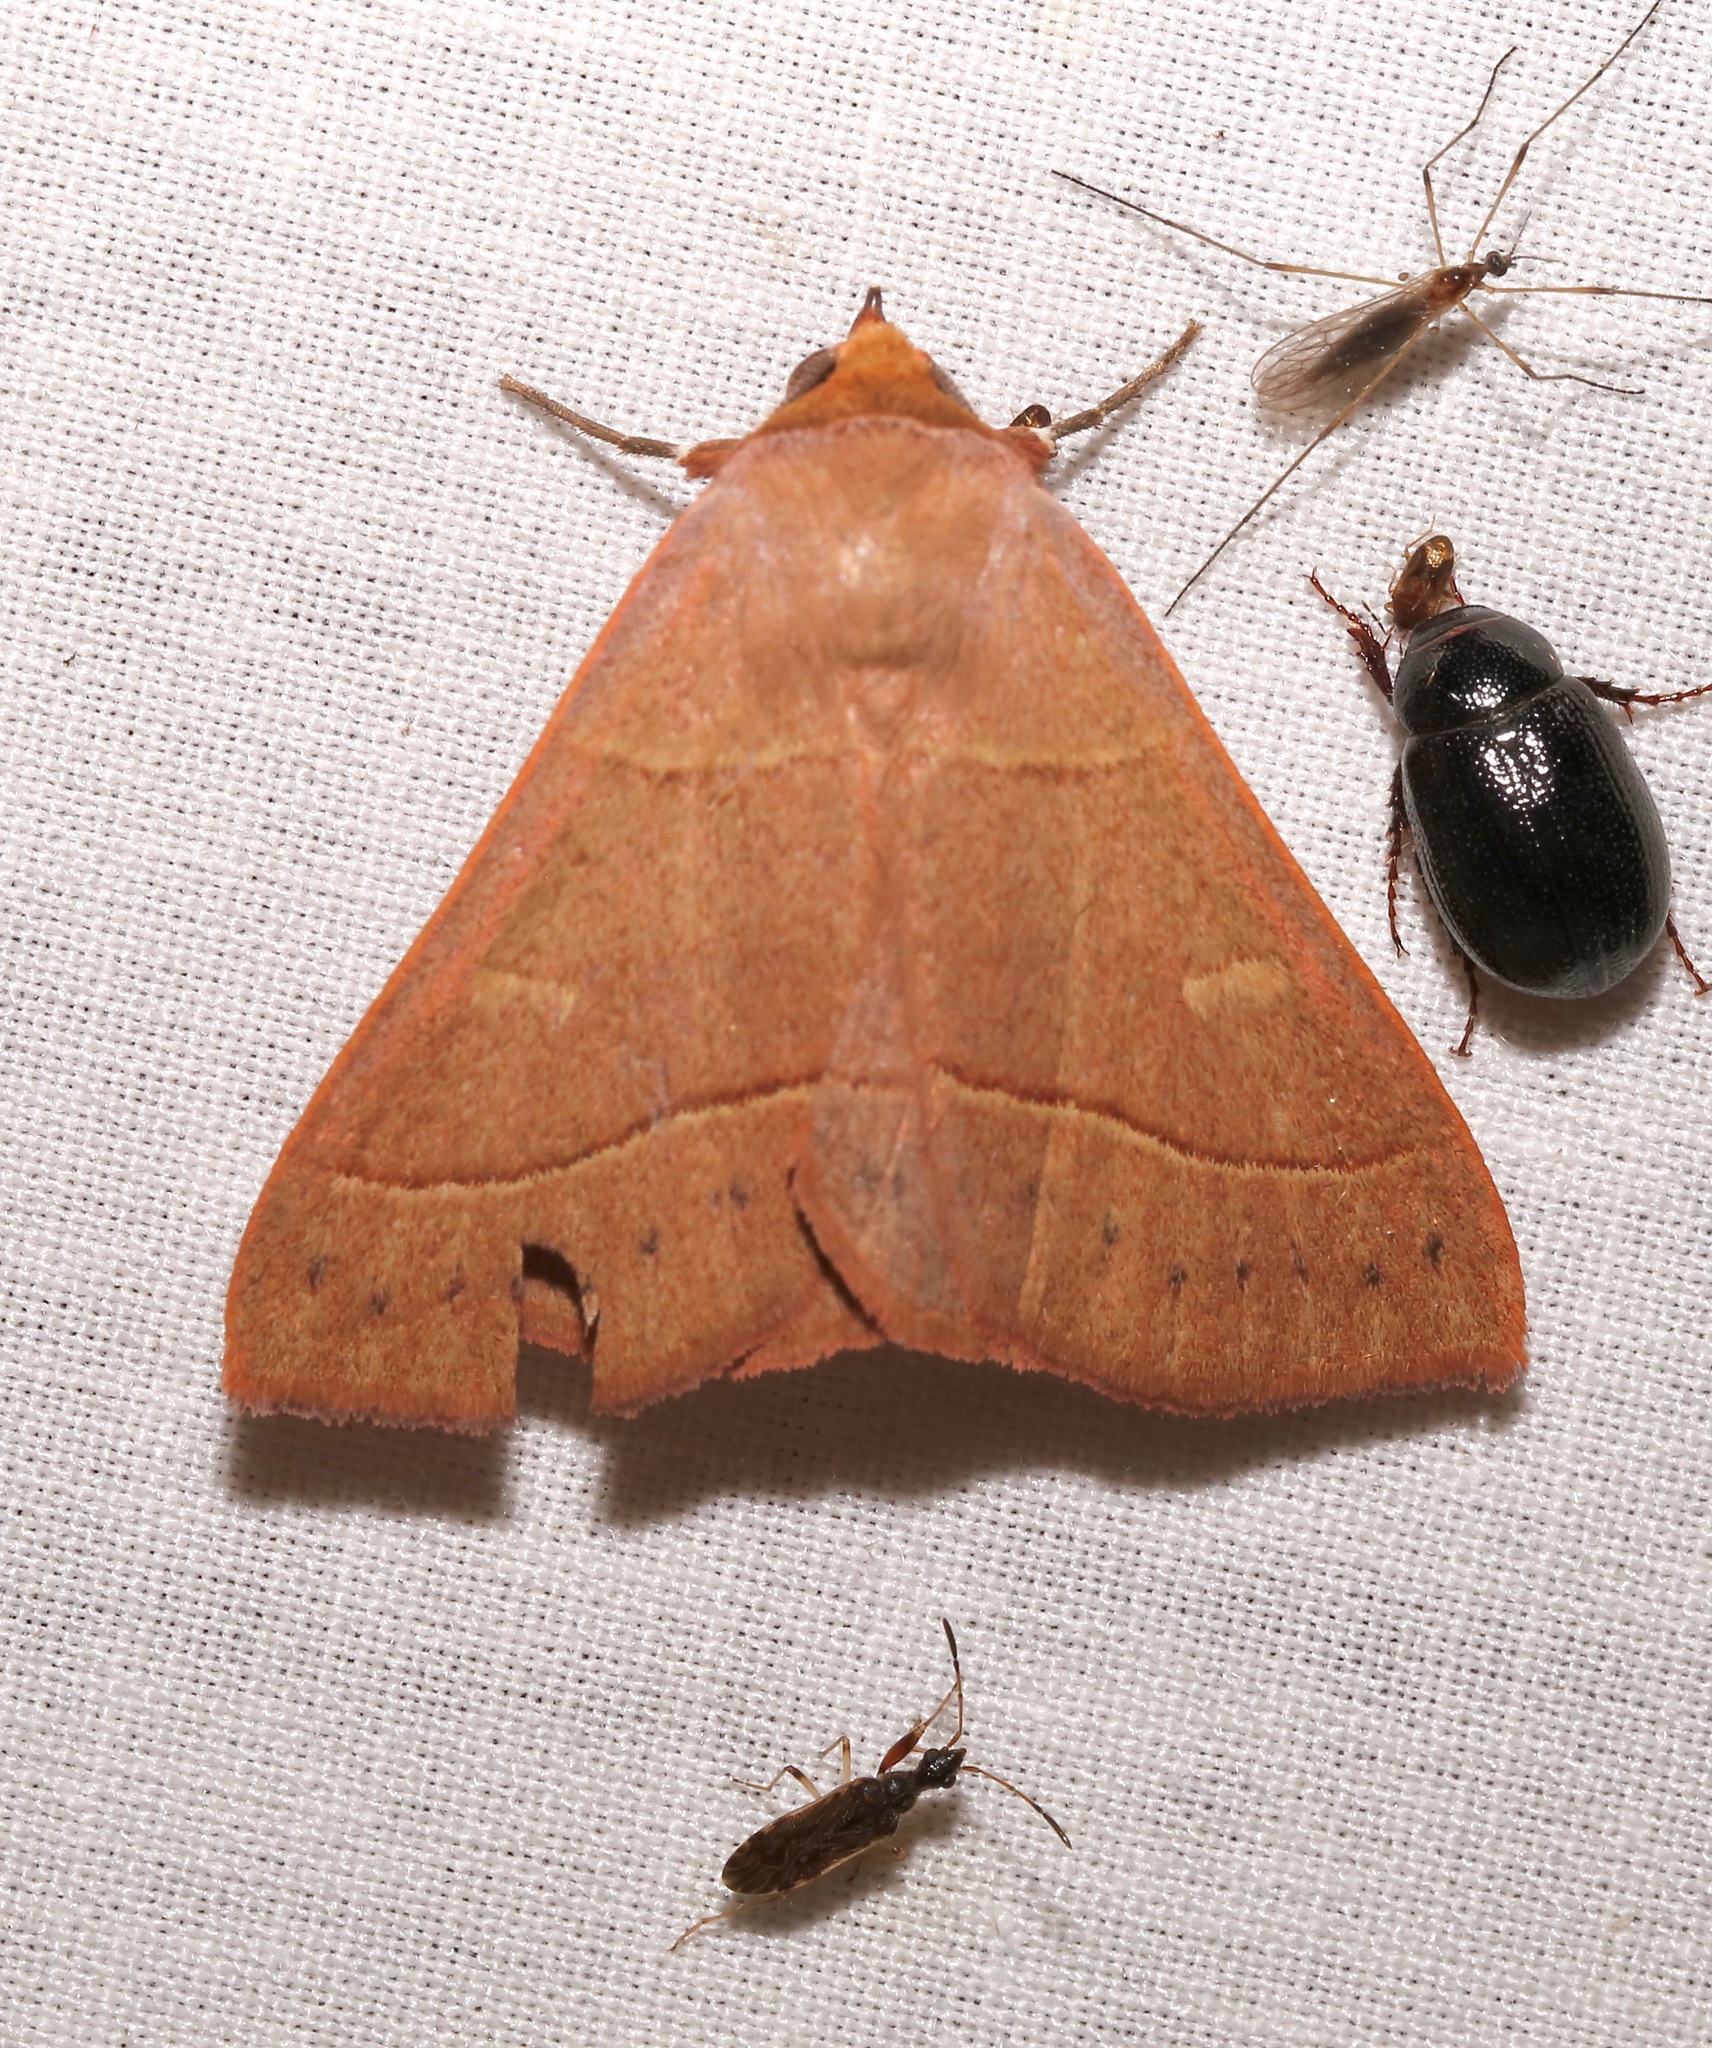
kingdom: Animalia
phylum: Arthropoda
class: Insecta
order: Lepidoptera
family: Erebidae
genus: Panopoda
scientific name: Panopoda rufimargo
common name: Red-lined panopoda moth
